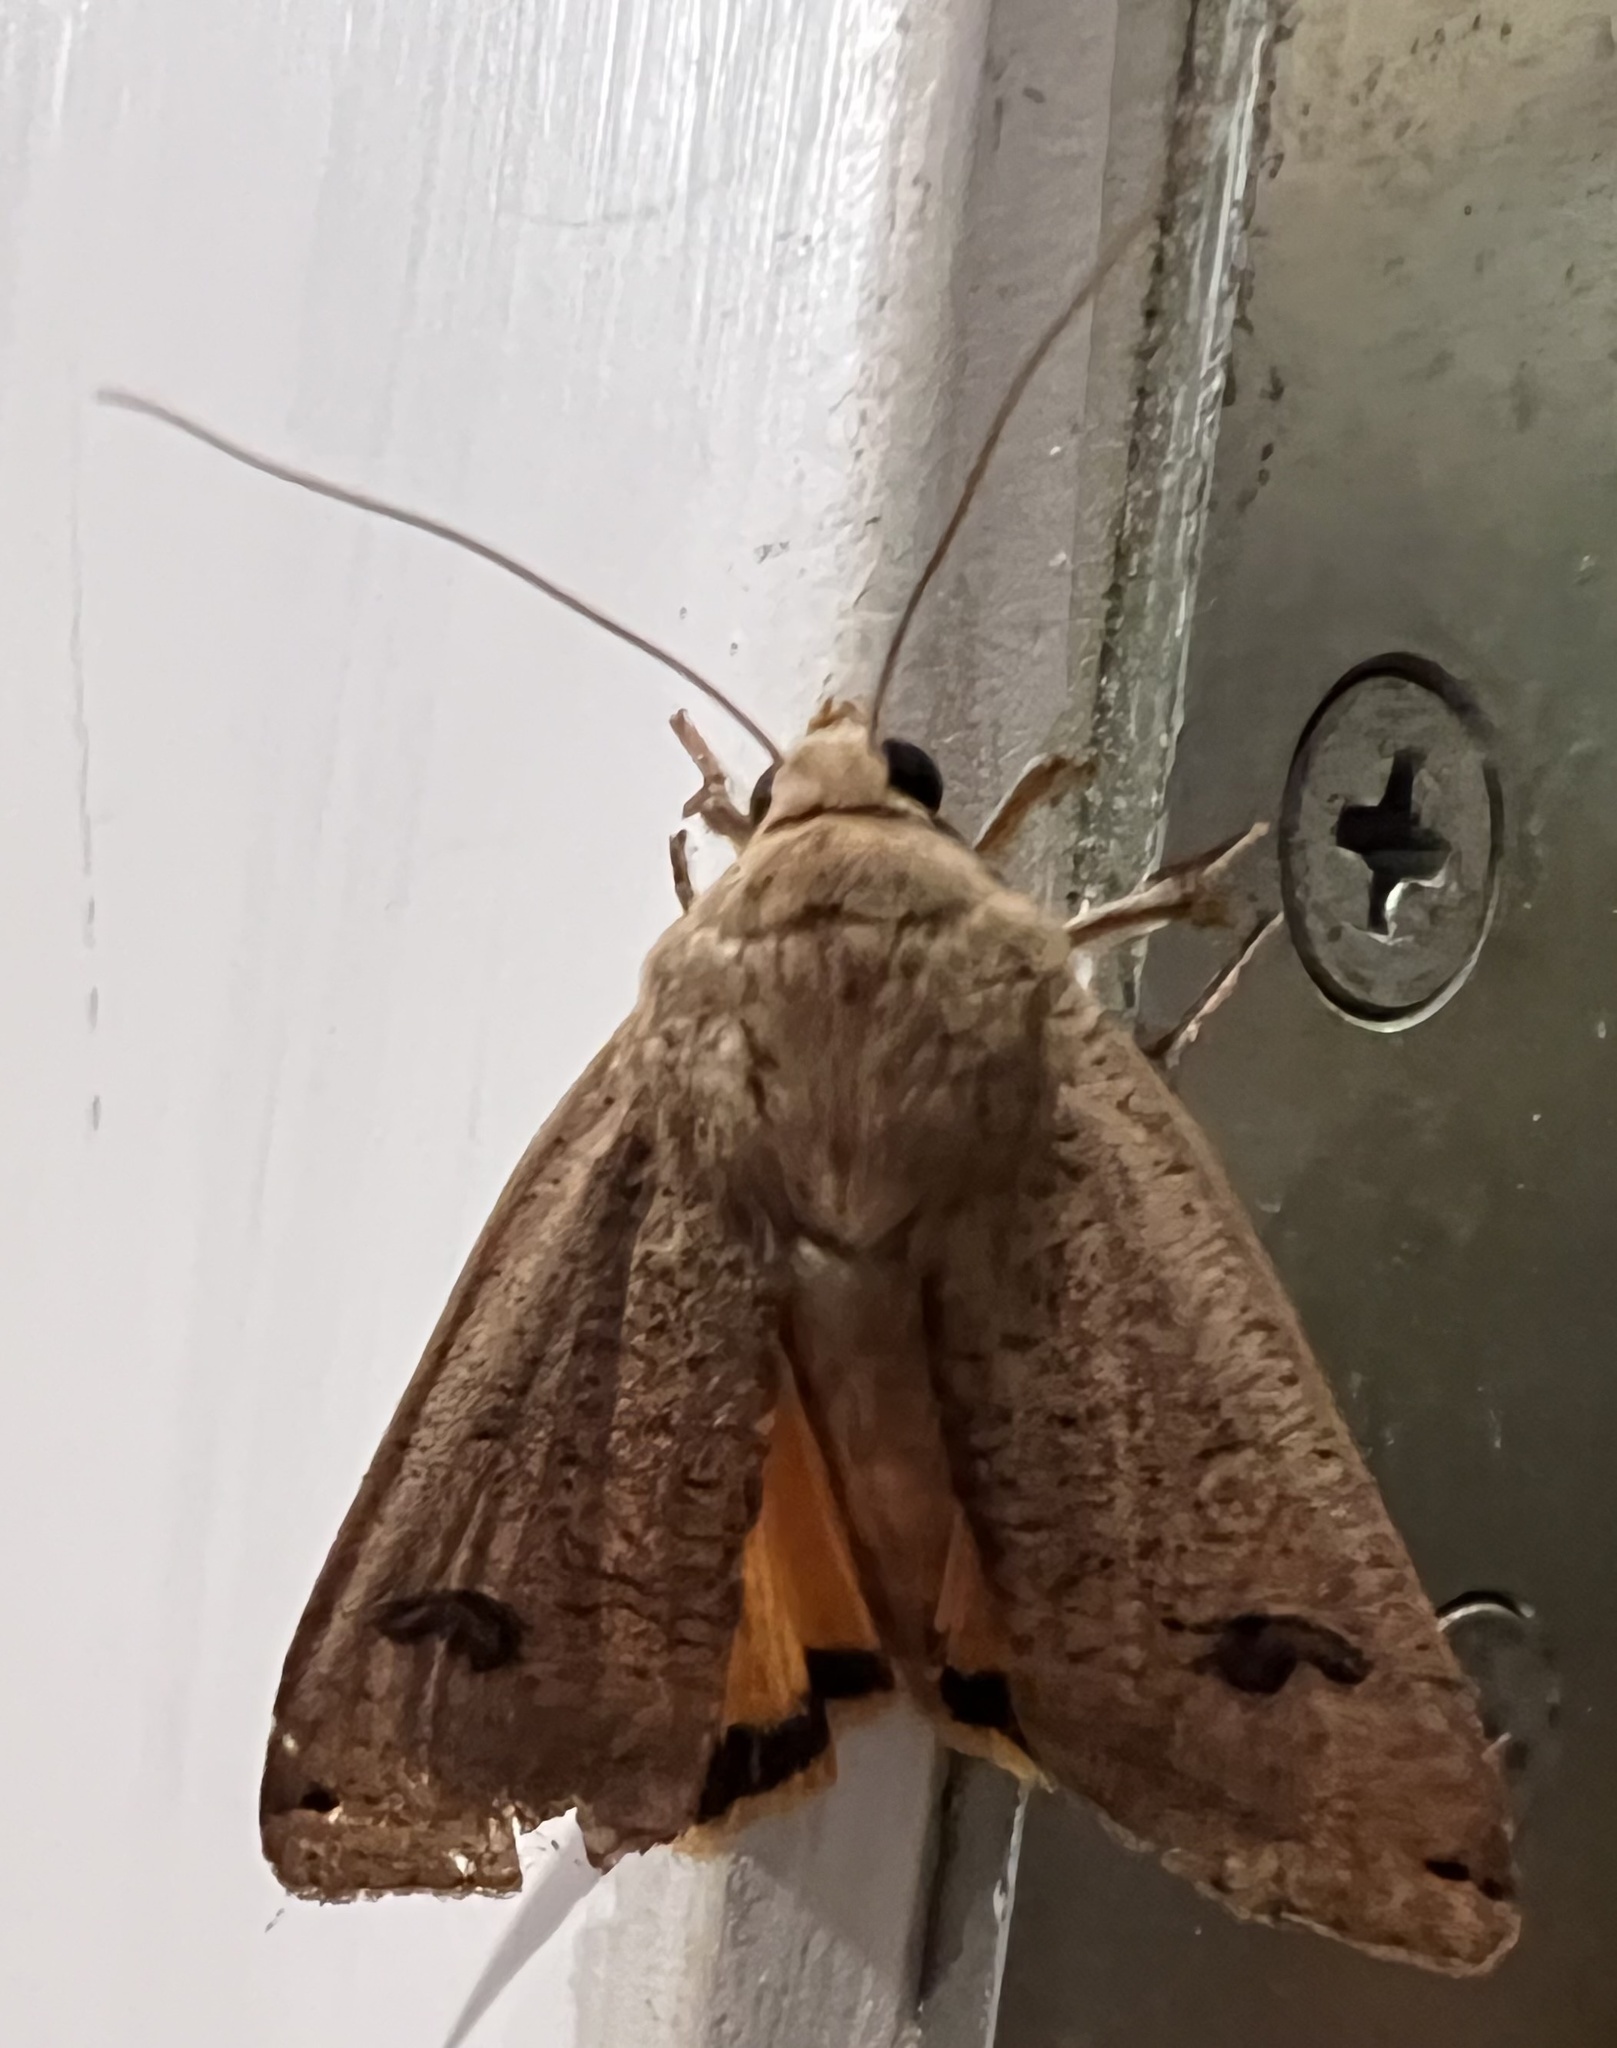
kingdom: Animalia
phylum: Arthropoda
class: Insecta
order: Lepidoptera
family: Noctuidae
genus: Noctua
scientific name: Noctua pronuba
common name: Large yellow underwing
